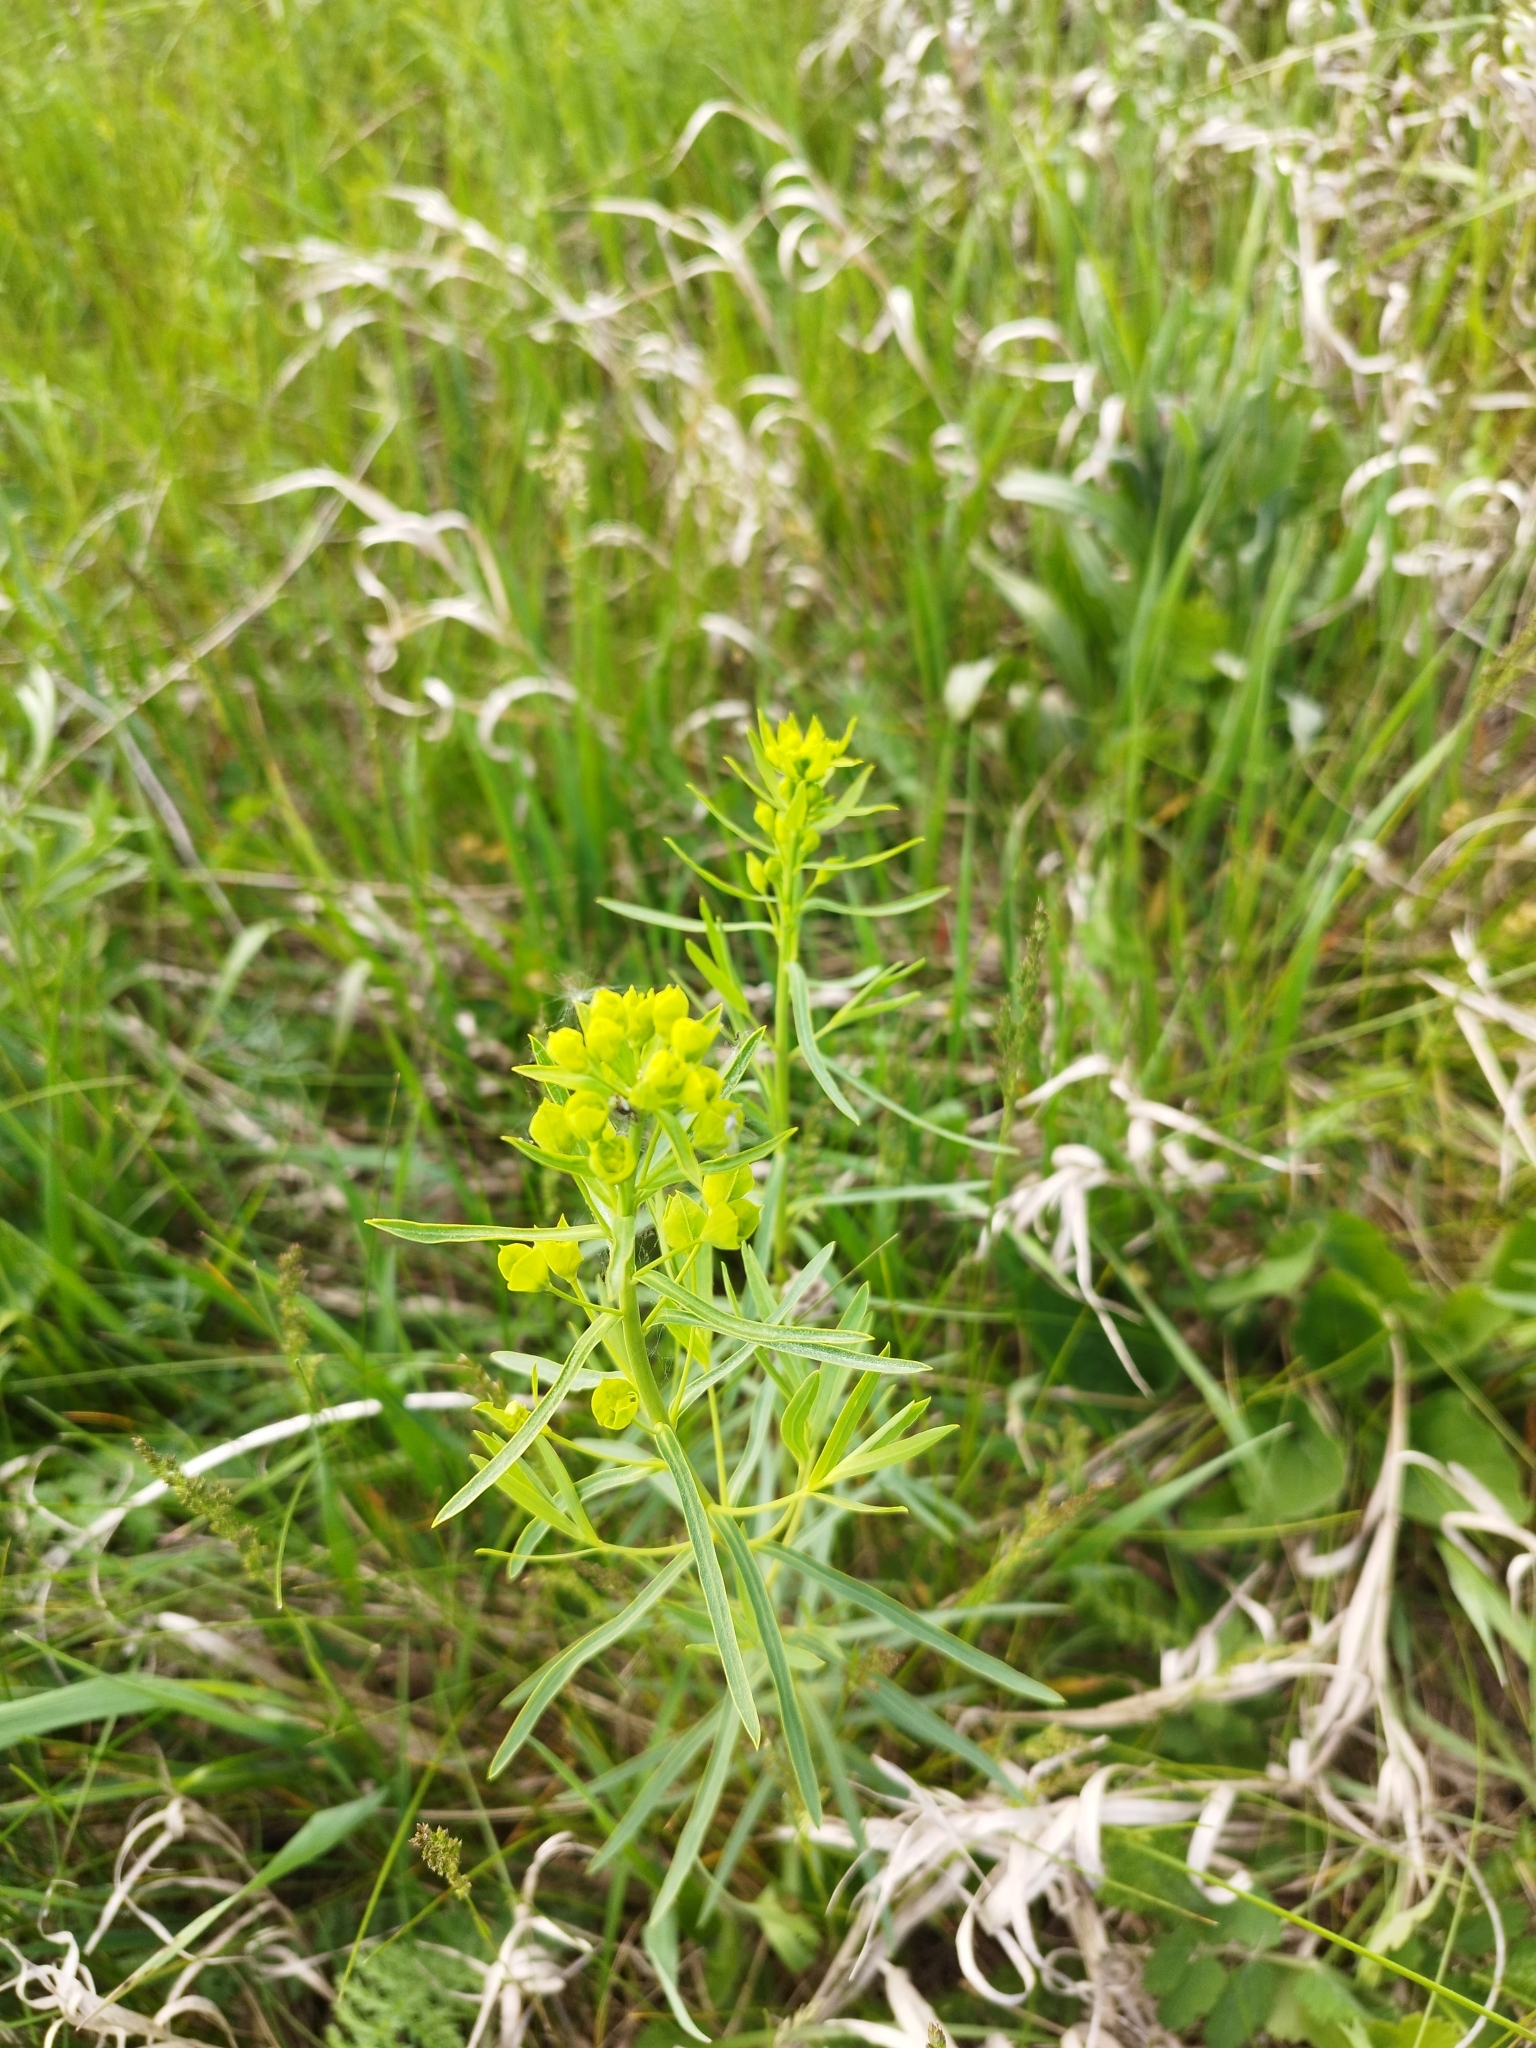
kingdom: Plantae
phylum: Tracheophyta
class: Magnoliopsida
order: Malpighiales
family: Euphorbiaceae
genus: Euphorbia
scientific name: Euphorbia virgata
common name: Leafy spurge
